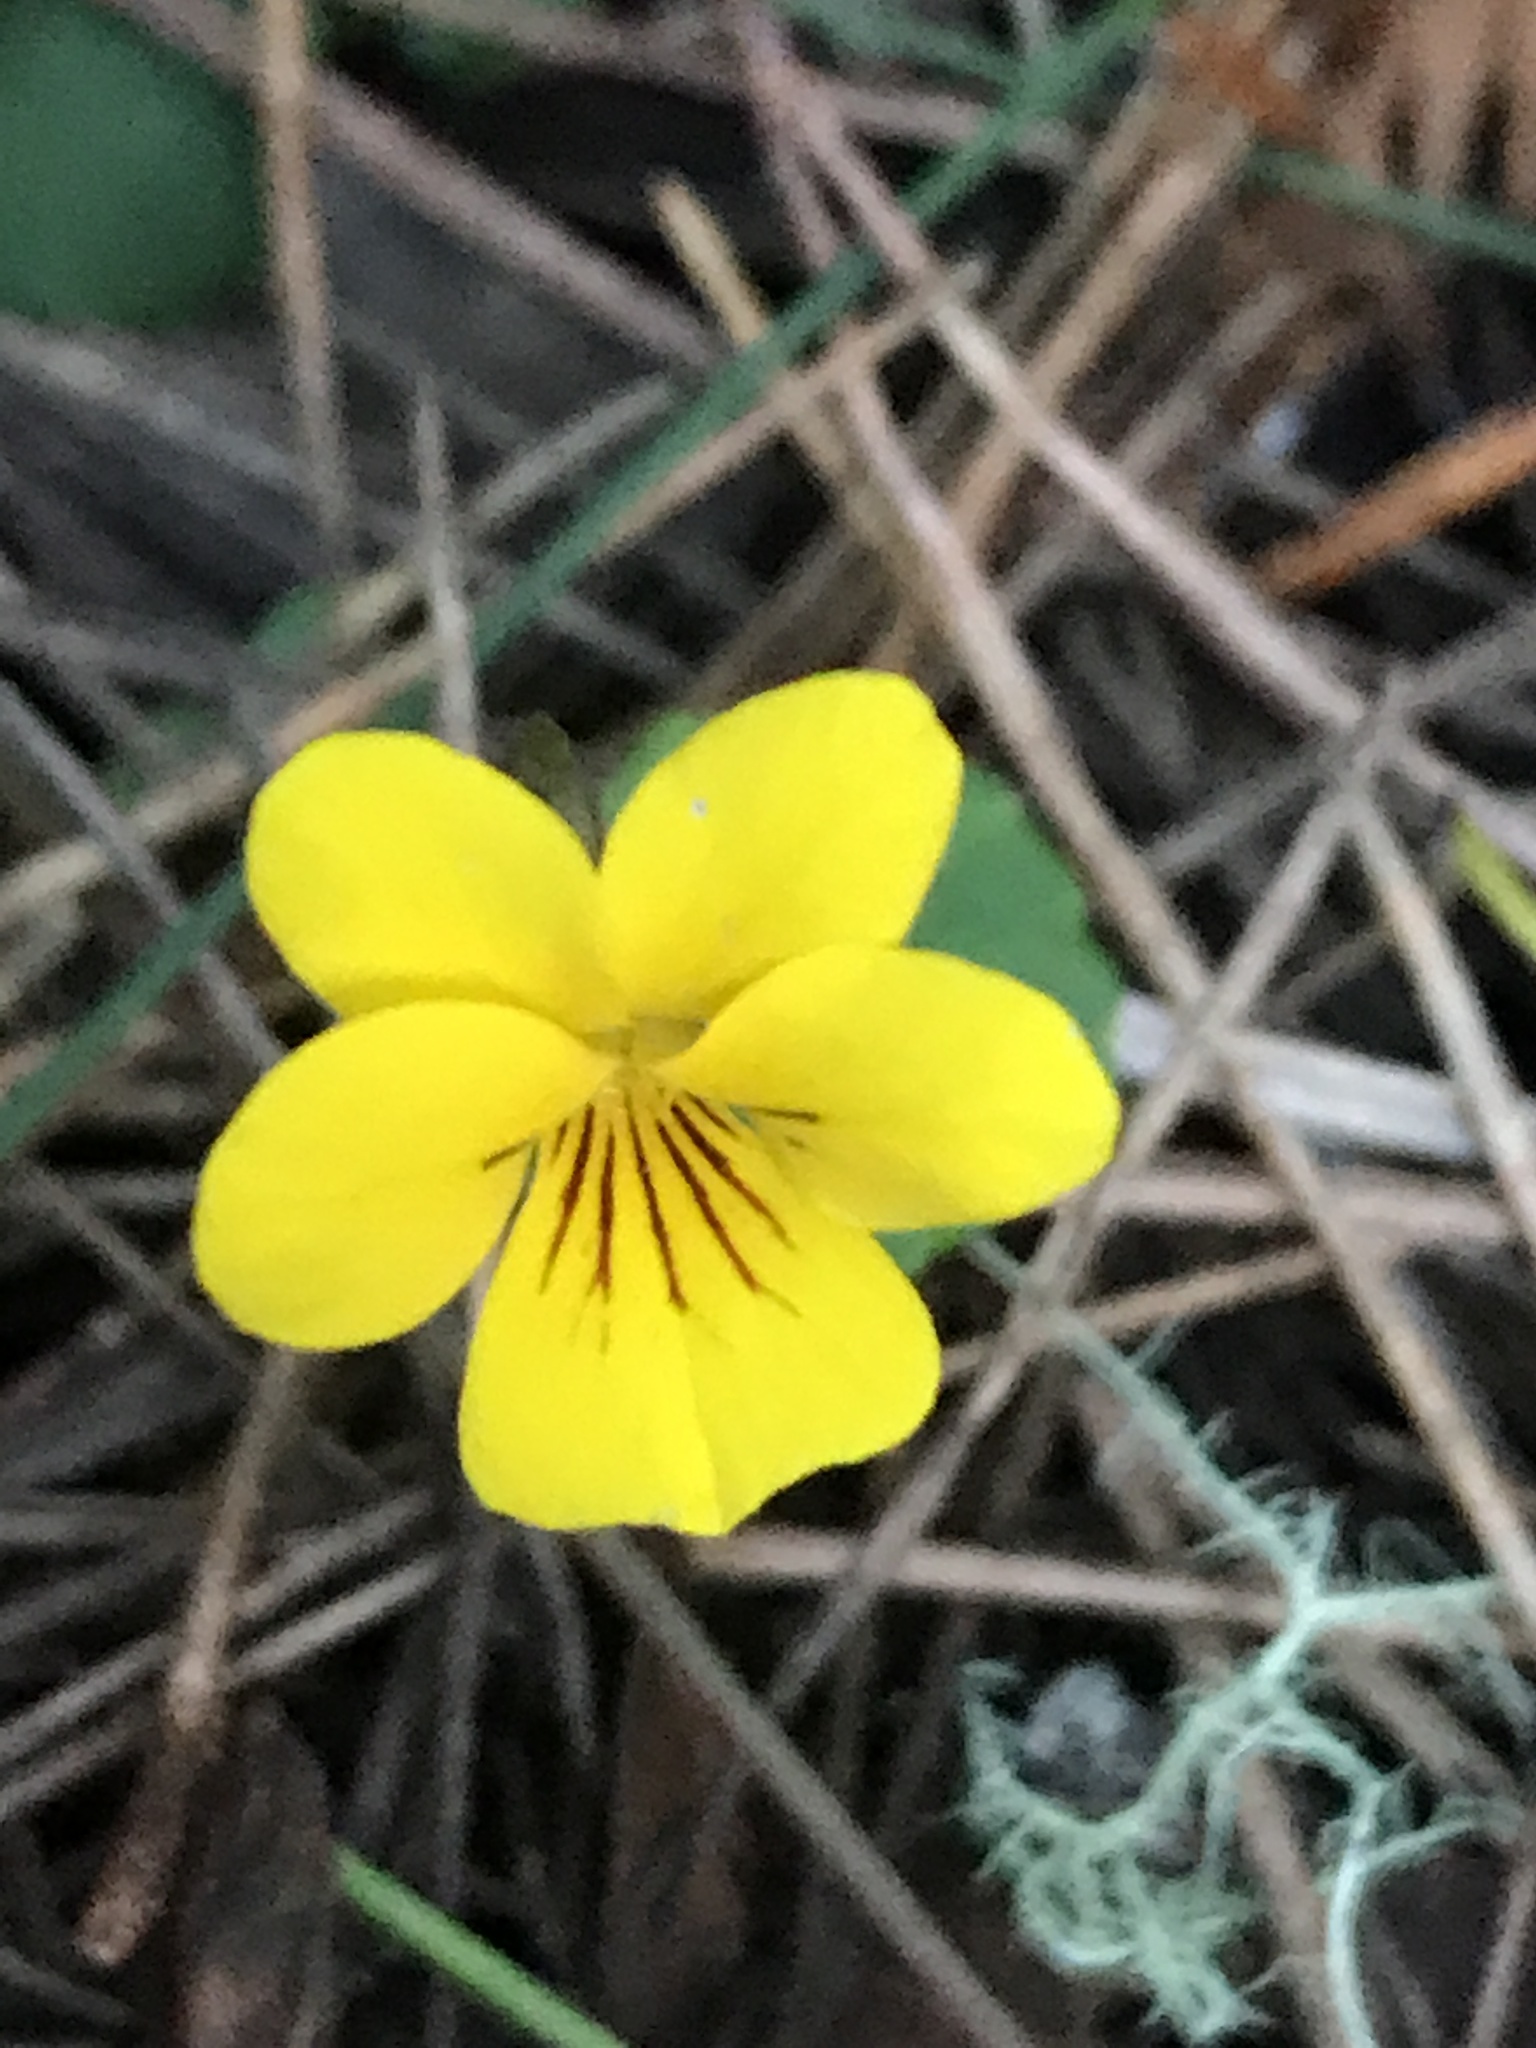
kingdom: Plantae
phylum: Tracheophyta
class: Magnoliopsida
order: Malpighiales
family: Violaceae
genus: Viola
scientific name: Viola sempervirens
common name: Evergreen violet
